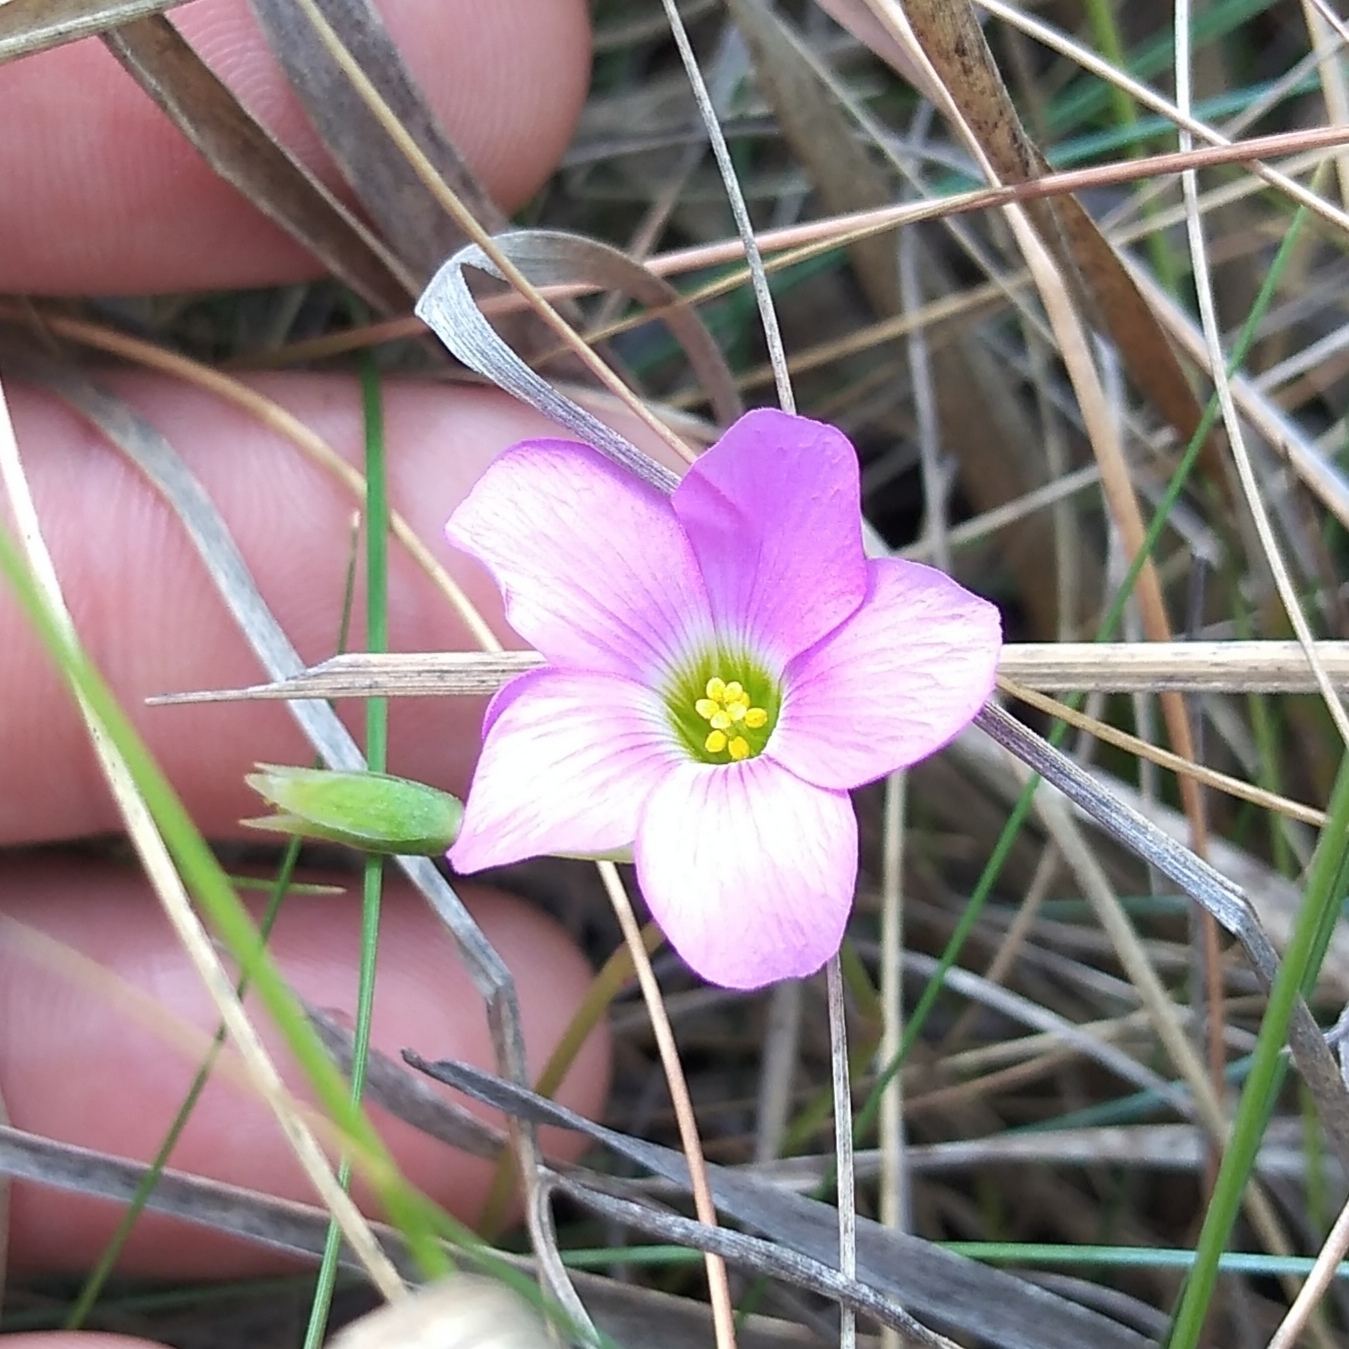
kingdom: Plantae
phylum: Tracheophyta
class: Magnoliopsida
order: Oxalidales
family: Oxalidaceae
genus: Oxalis
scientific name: Oxalis smithiana
